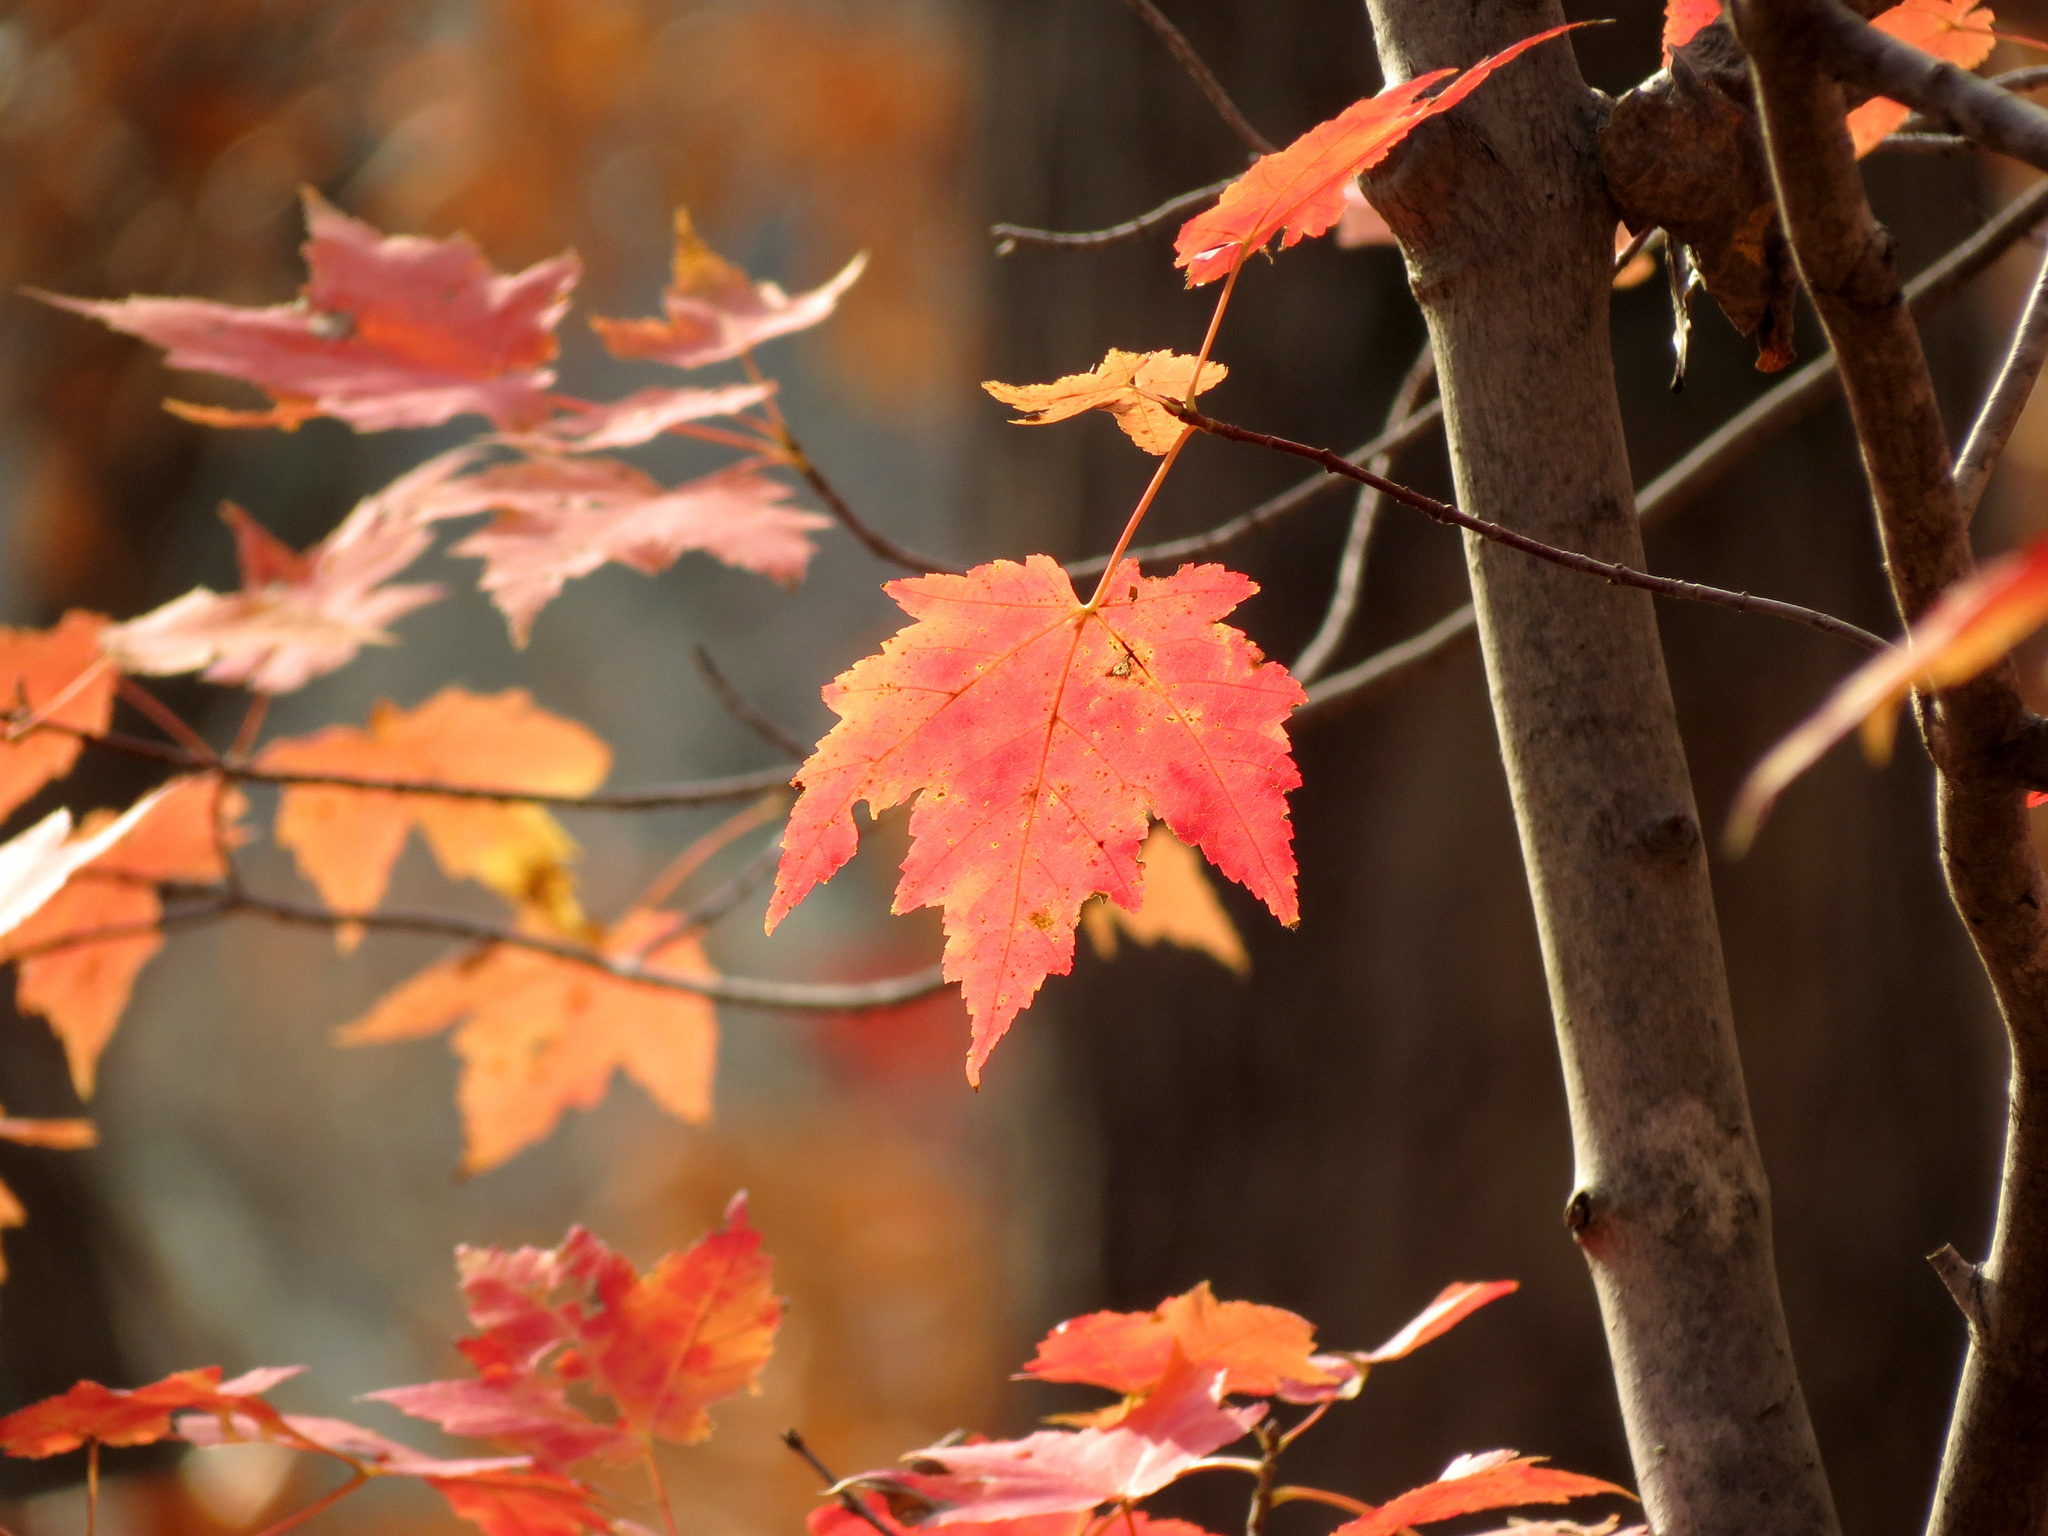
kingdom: Plantae
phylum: Tracheophyta
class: Magnoliopsida
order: Sapindales
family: Sapindaceae
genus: Acer
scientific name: Acer rubrum
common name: Red maple
